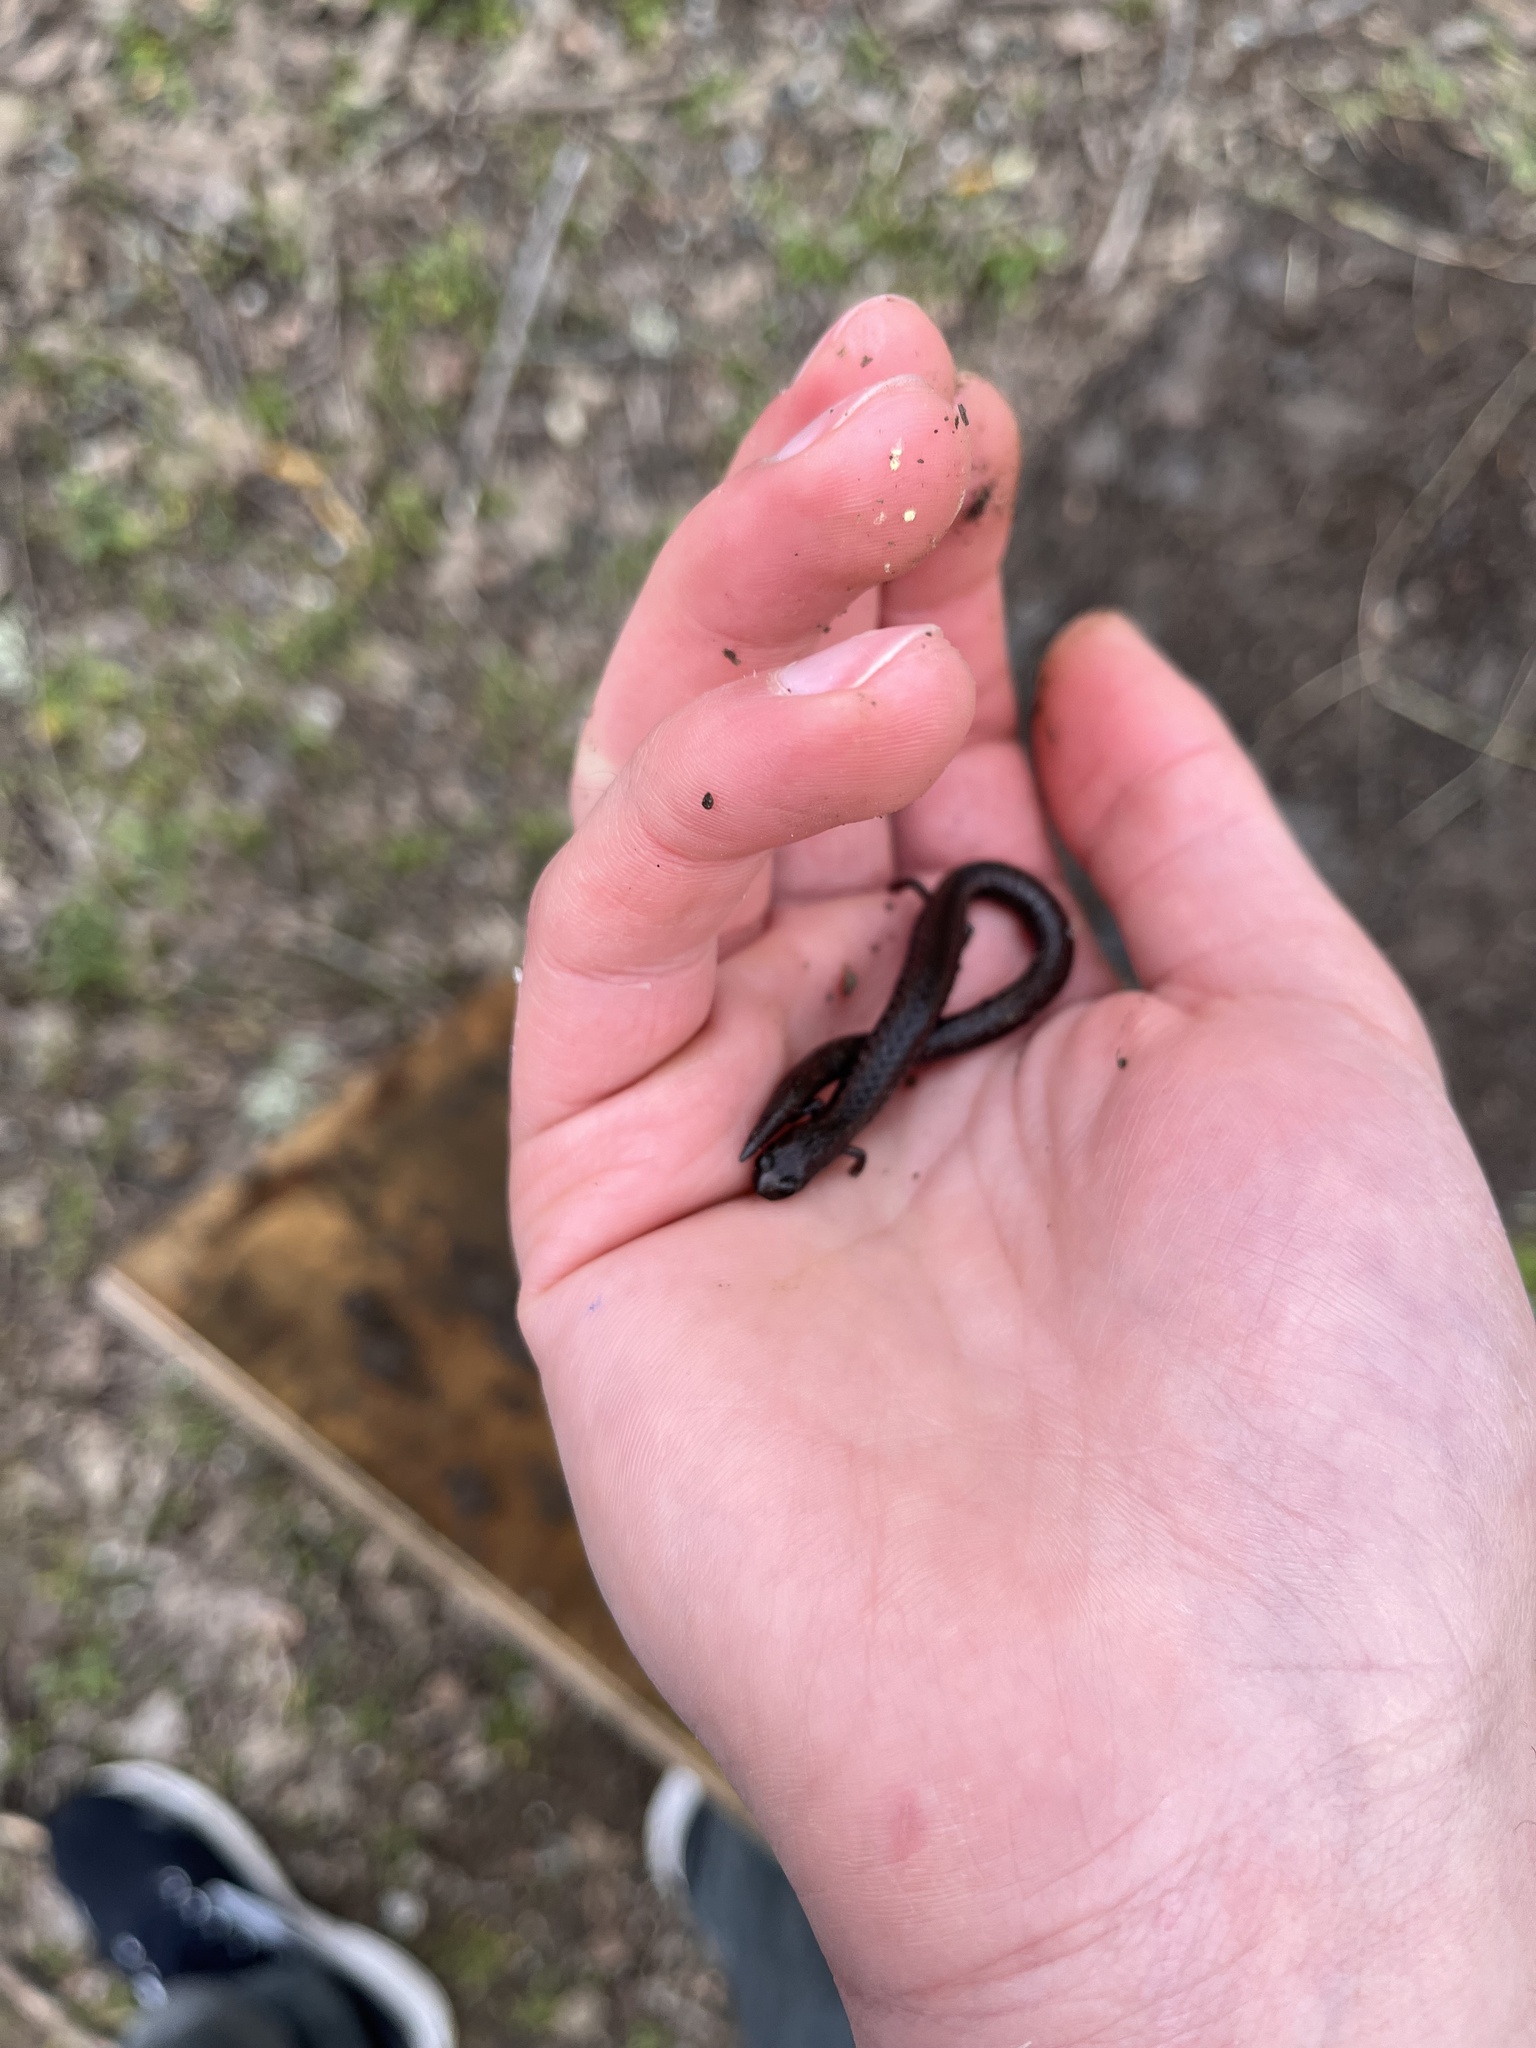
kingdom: Animalia
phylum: Chordata
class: Amphibia
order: Caudata
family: Plethodontidae
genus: Batrachoseps
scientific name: Batrachoseps attenuatus
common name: California slender salamander
